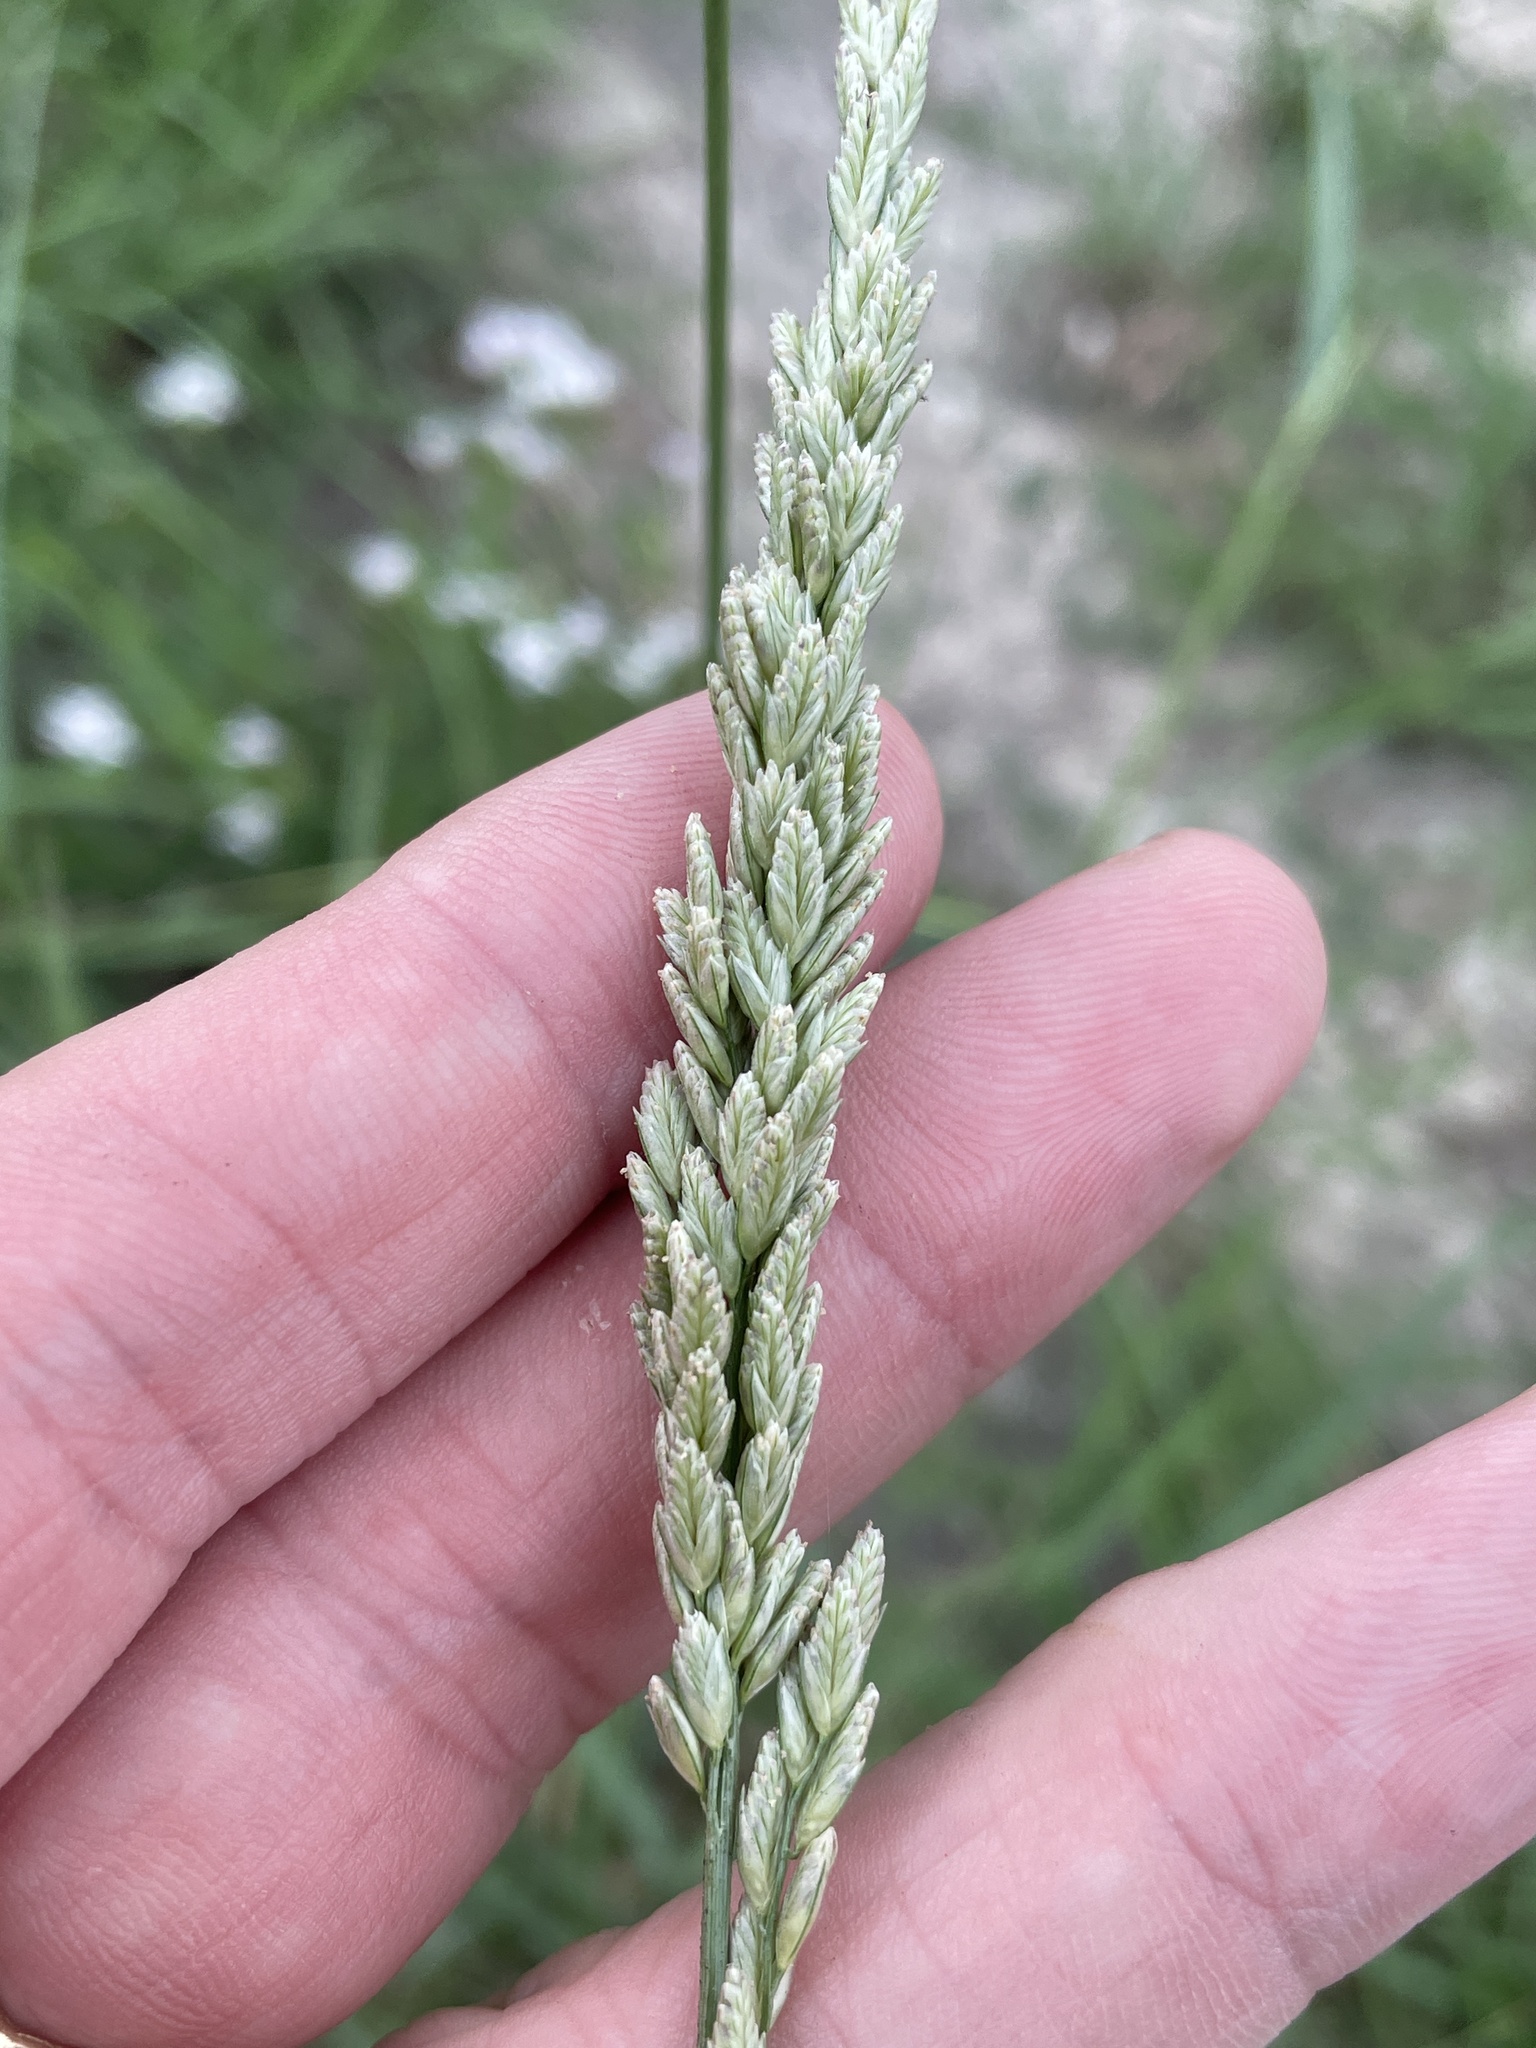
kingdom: Plantae
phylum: Tracheophyta
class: Liliopsida
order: Poales
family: Poaceae
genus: Tridens
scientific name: Tridens albescens
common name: White tridens
